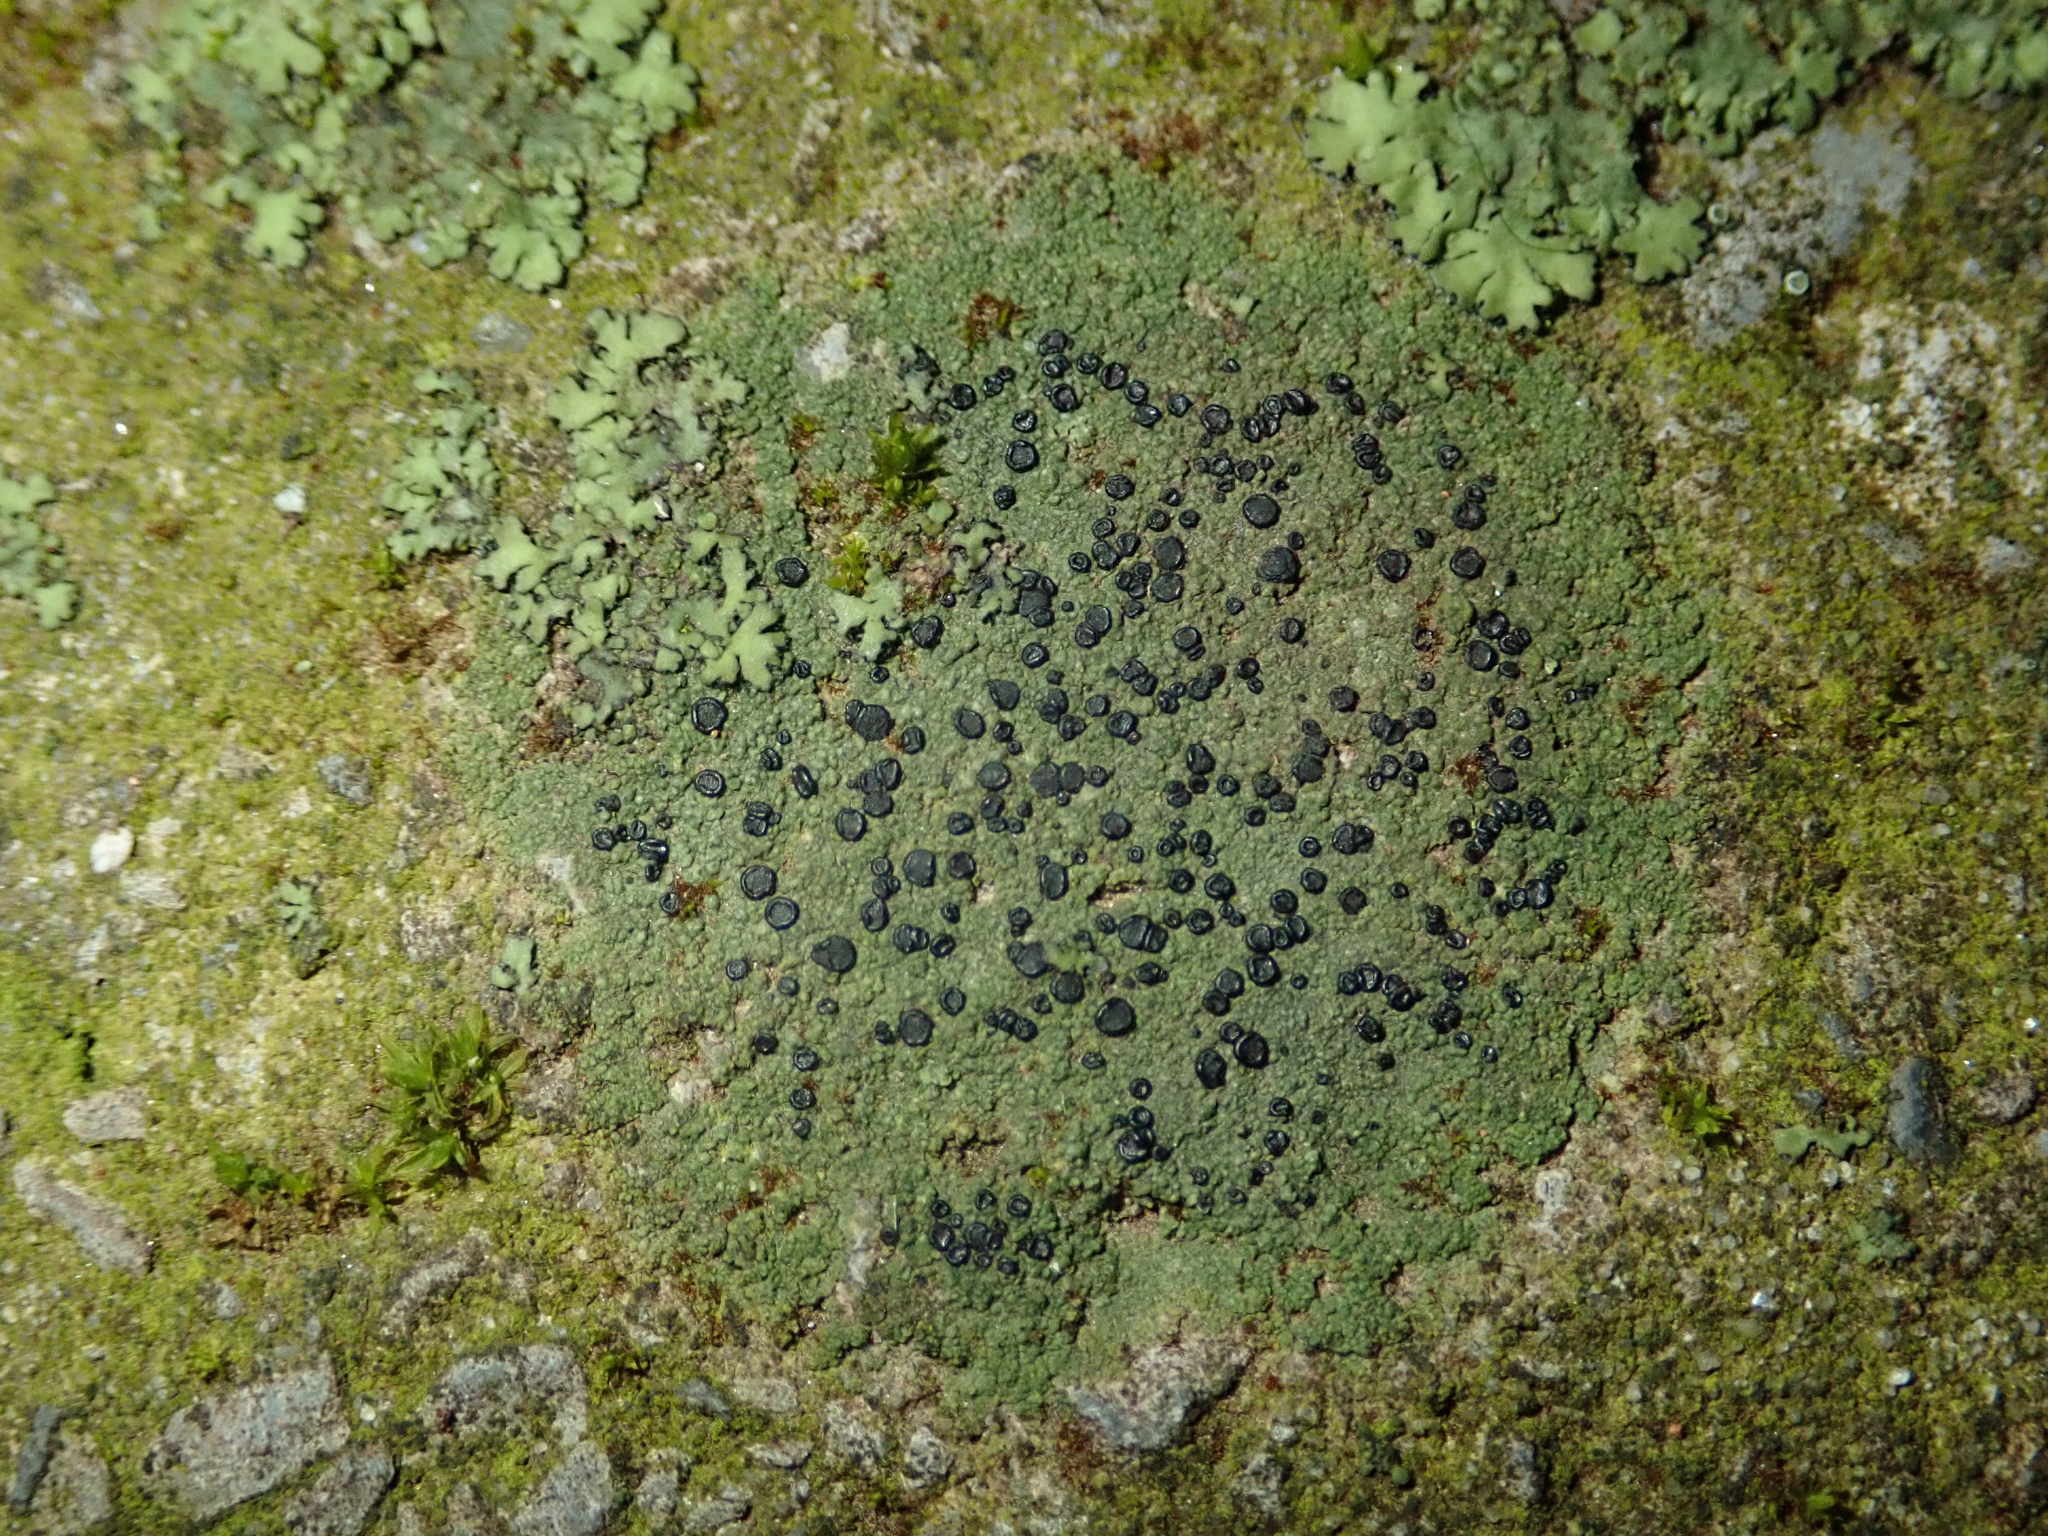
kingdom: Fungi
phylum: Ascomycota
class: Lecanoromycetes
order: Lecanorales
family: Lecanoraceae
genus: Lecidella
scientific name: Lecidella stigmatea
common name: Limestone disc lichen
